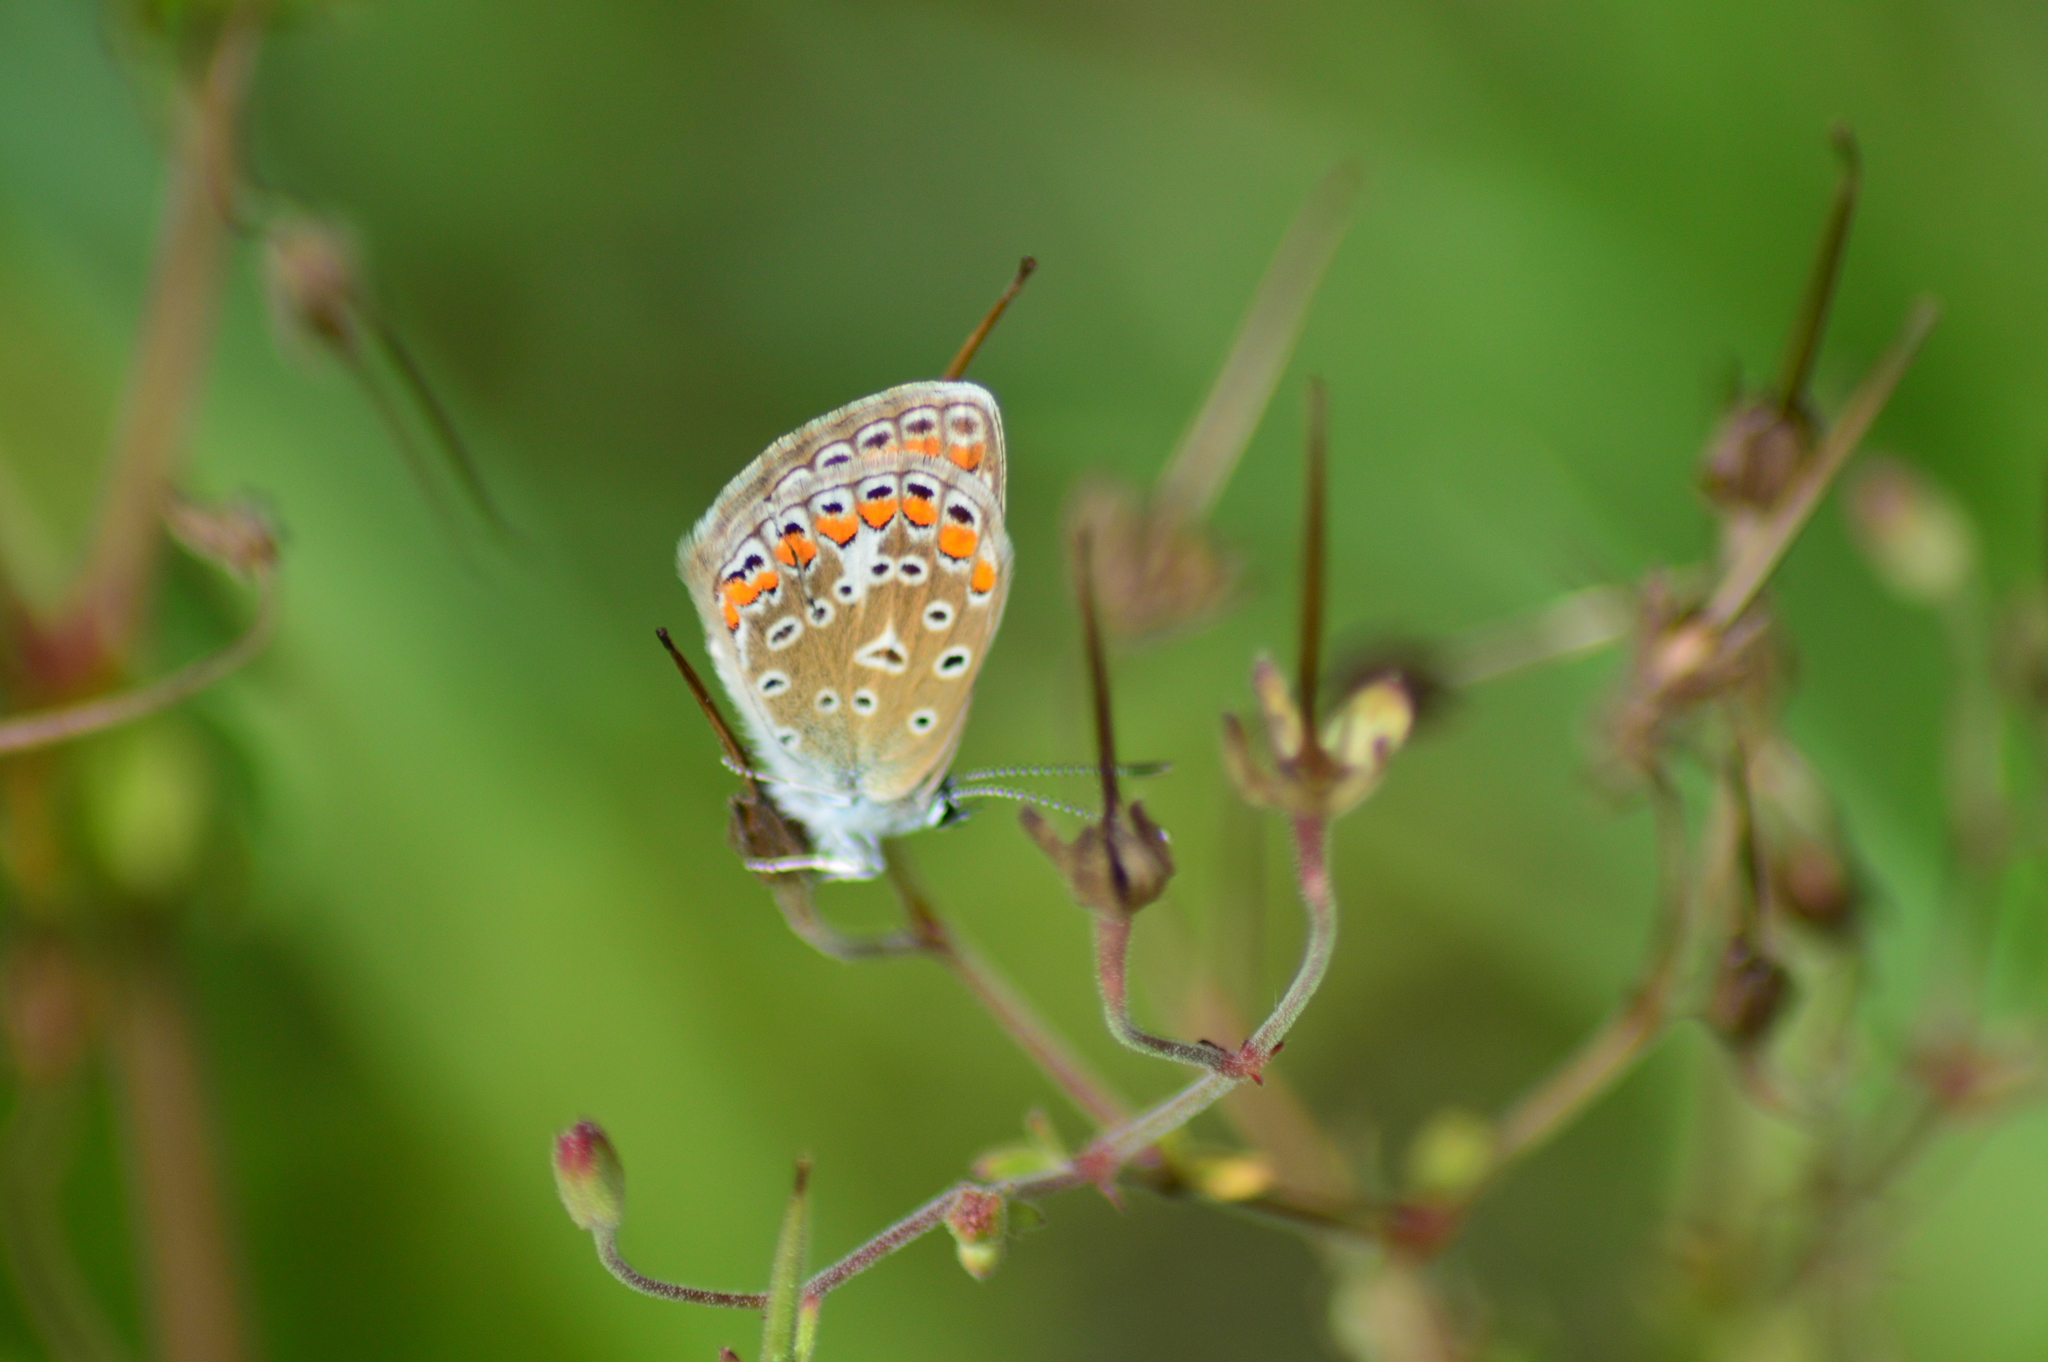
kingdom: Animalia
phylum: Arthropoda
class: Insecta
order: Lepidoptera
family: Lycaenidae
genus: Polyommatus
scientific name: Polyommatus icarus
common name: Common blue
